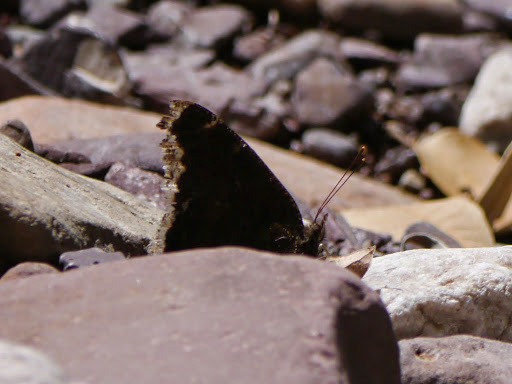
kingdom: Animalia
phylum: Arthropoda
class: Insecta
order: Lepidoptera
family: Nymphalidae
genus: Nymphalis
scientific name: Nymphalis antiopa
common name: Camberwell beauty
